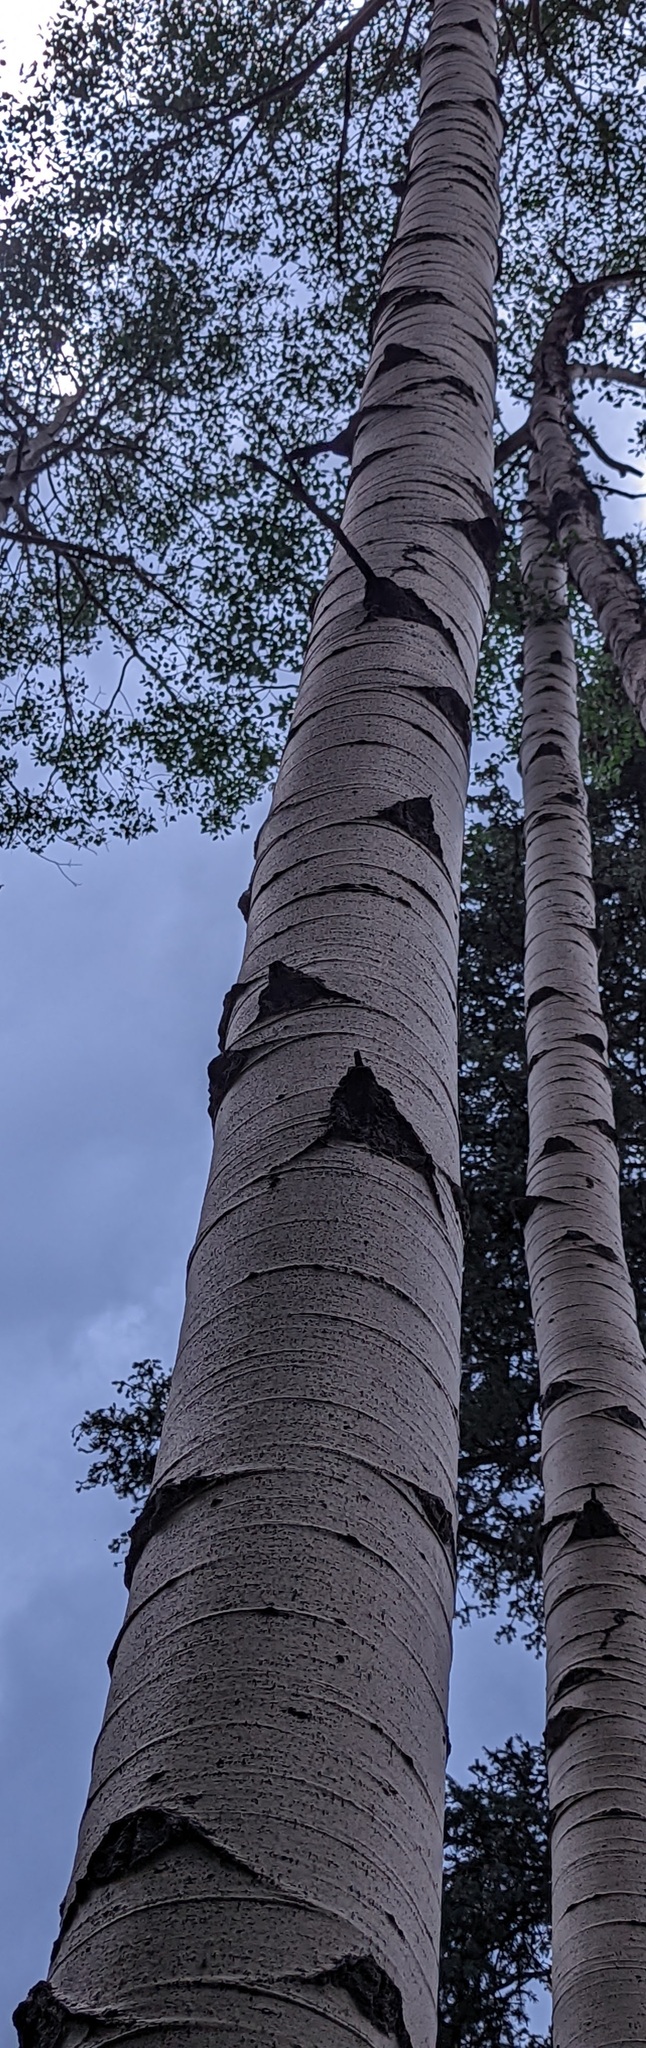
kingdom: Plantae
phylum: Tracheophyta
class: Magnoliopsida
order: Malpighiales
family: Salicaceae
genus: Populus
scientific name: Populus tremuloides
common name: Quaking aspen
